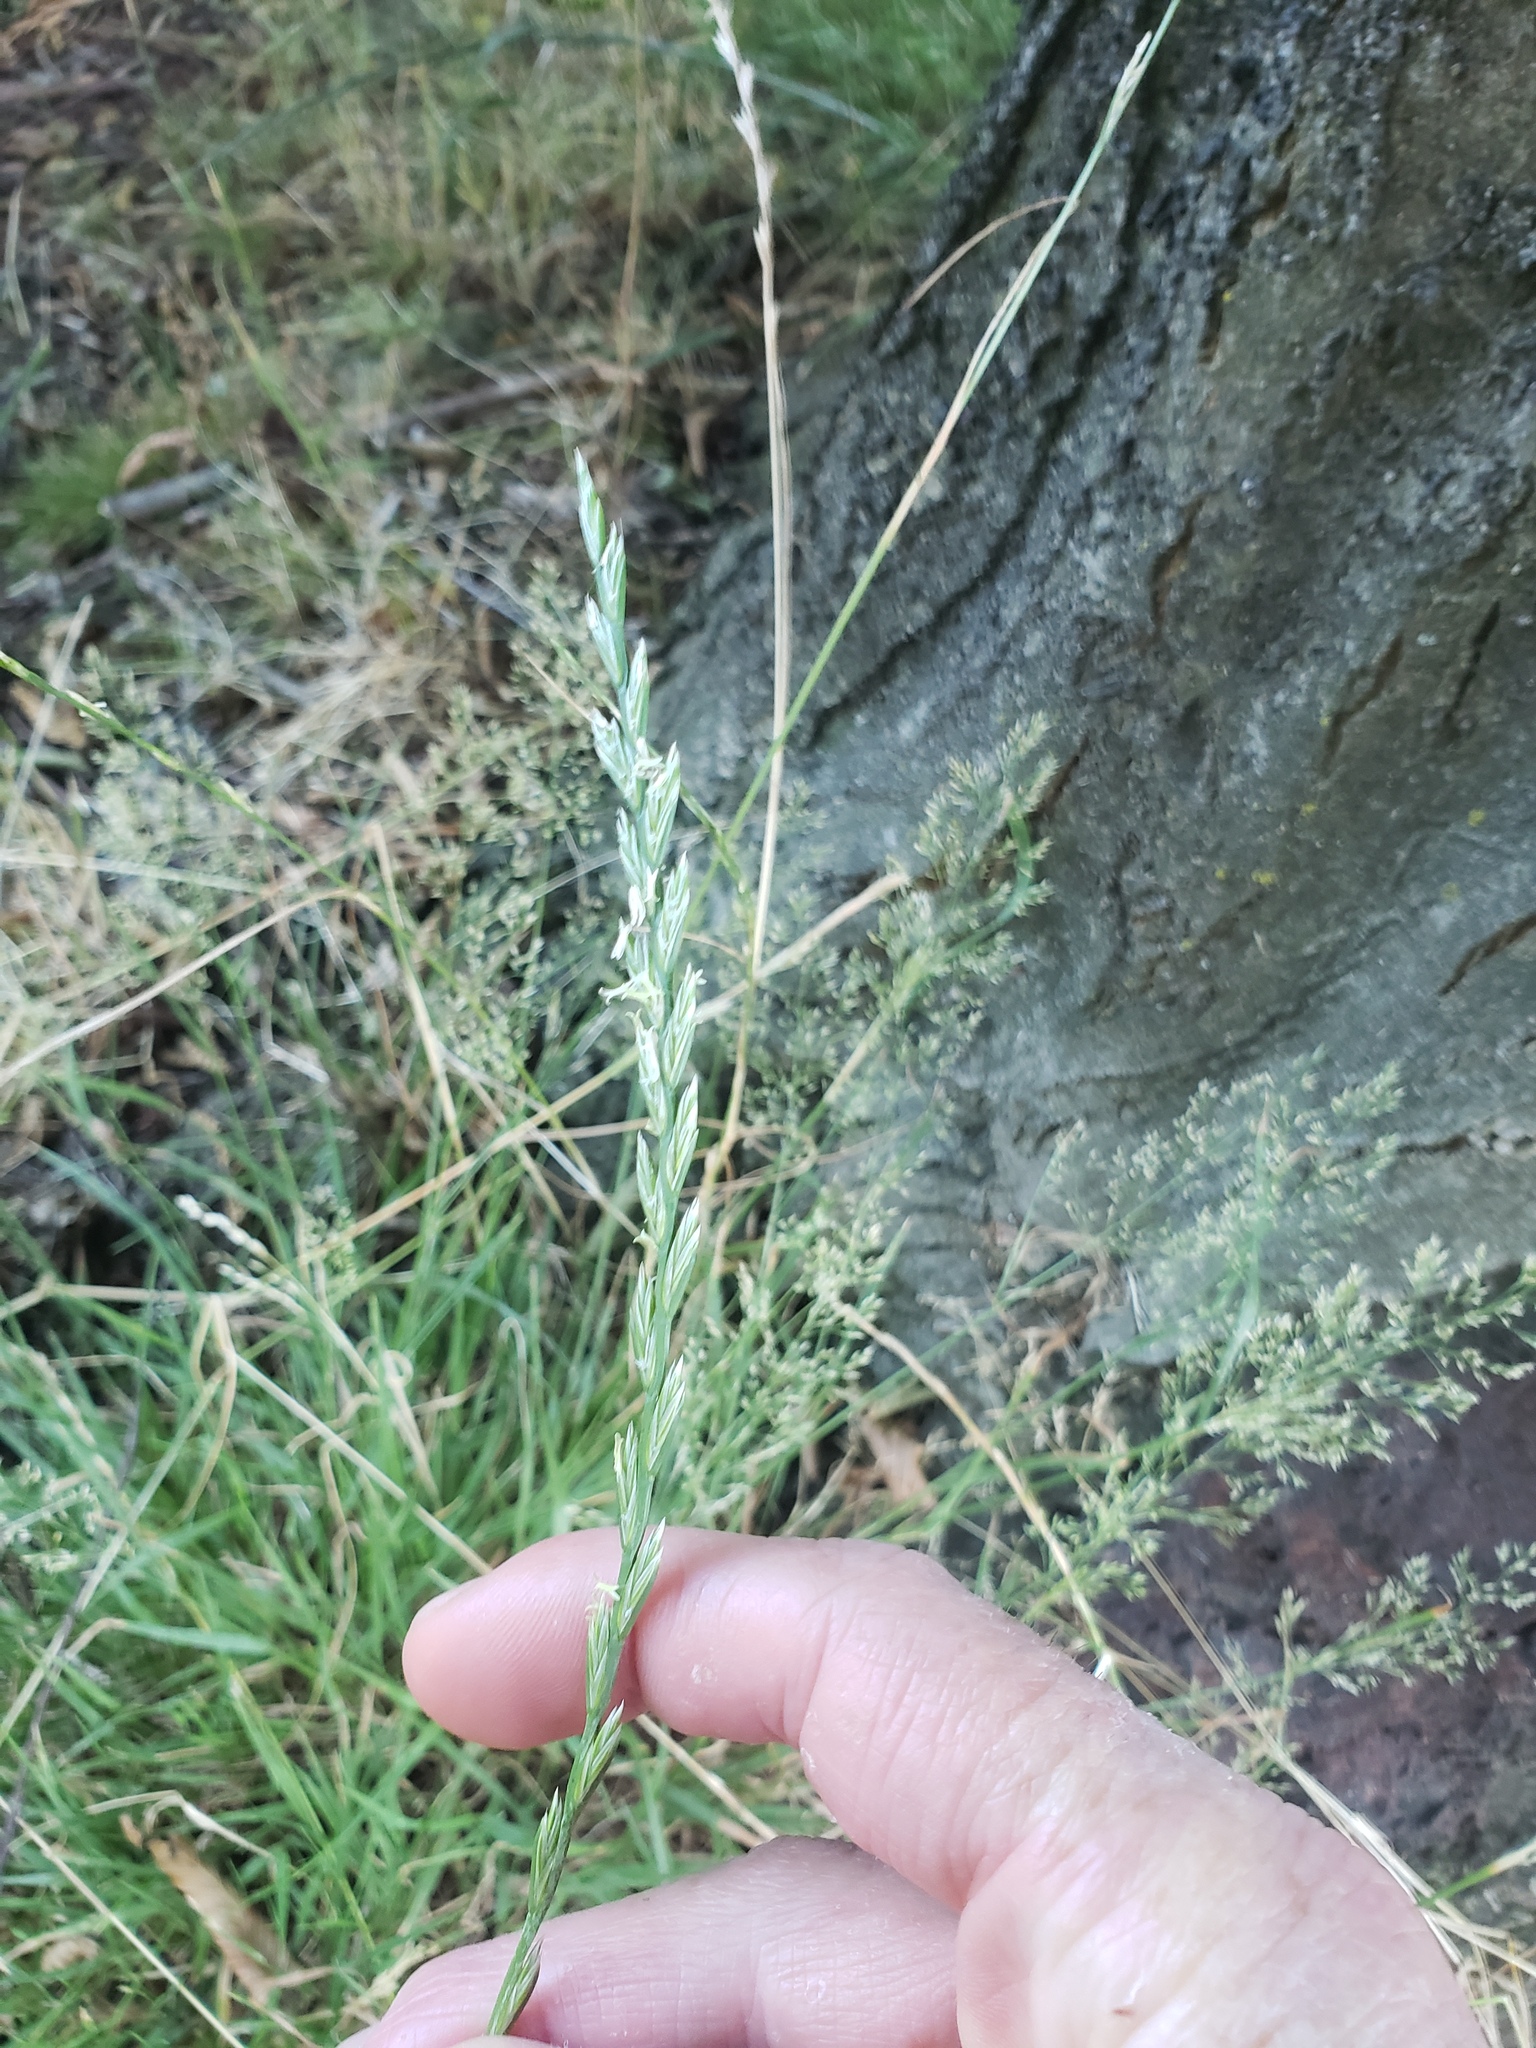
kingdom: Plantae
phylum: Tracheophyta
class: Liliopsida
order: Poales
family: Poaceae
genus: Lolium
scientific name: Lolium perenne
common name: Perennial ryegrass
